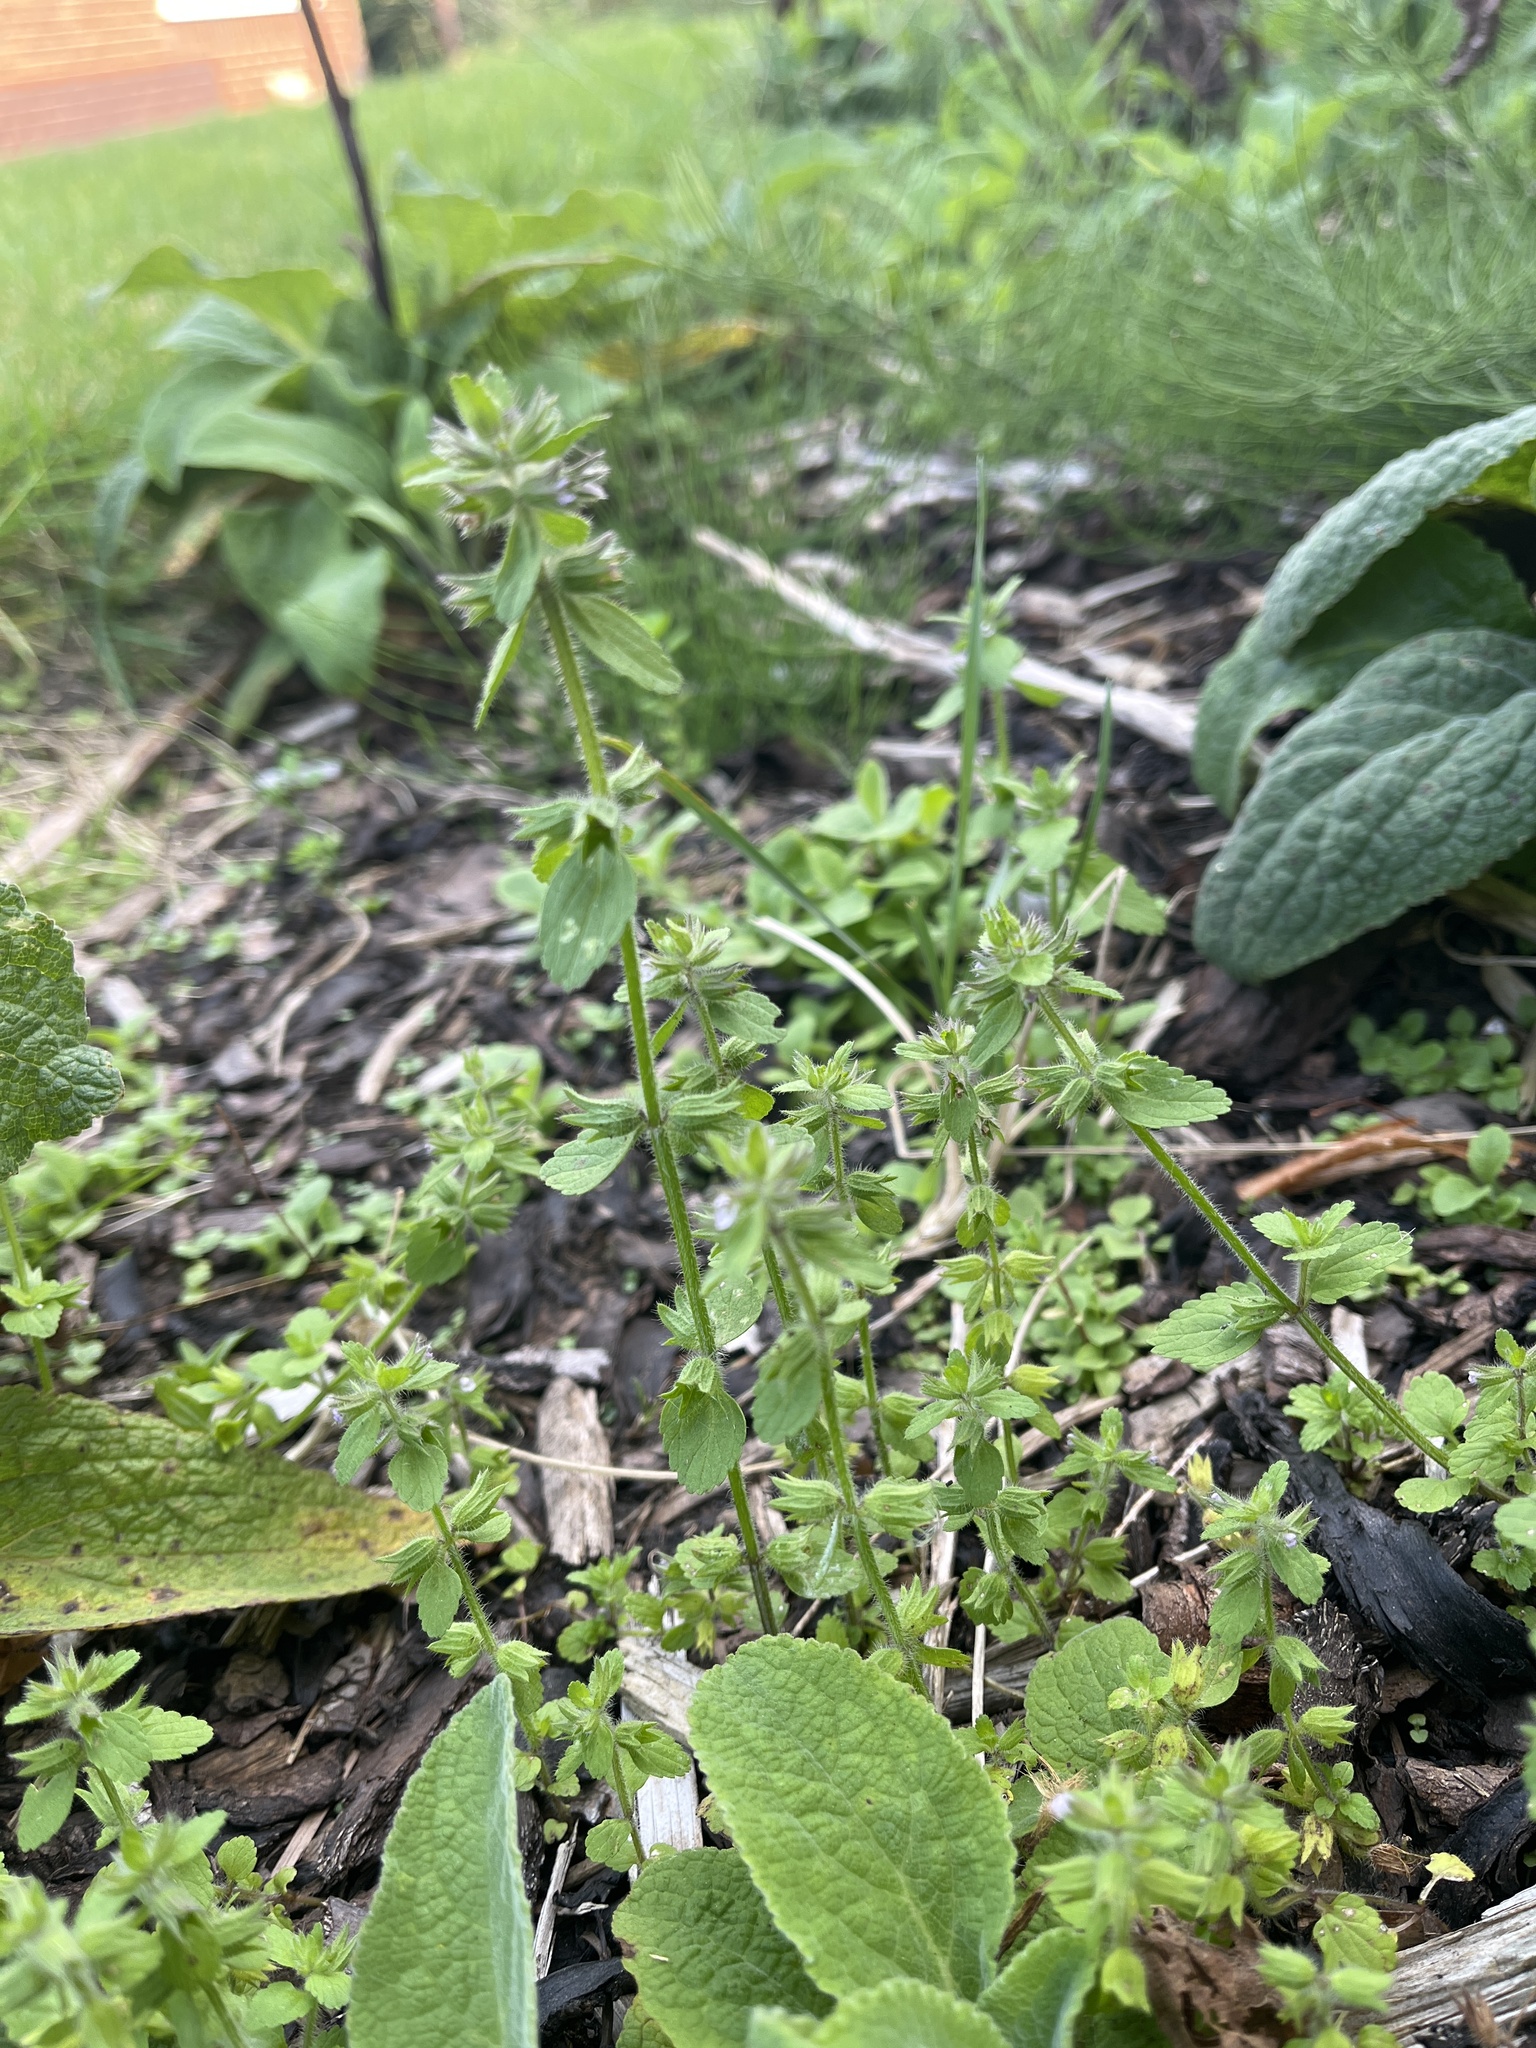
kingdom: Plantae
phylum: Tracheophyta
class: Magnoliopsida
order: Lamiales
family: Lamiaceae
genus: Stachys
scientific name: Stachys arvensis
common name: Field woundwort
